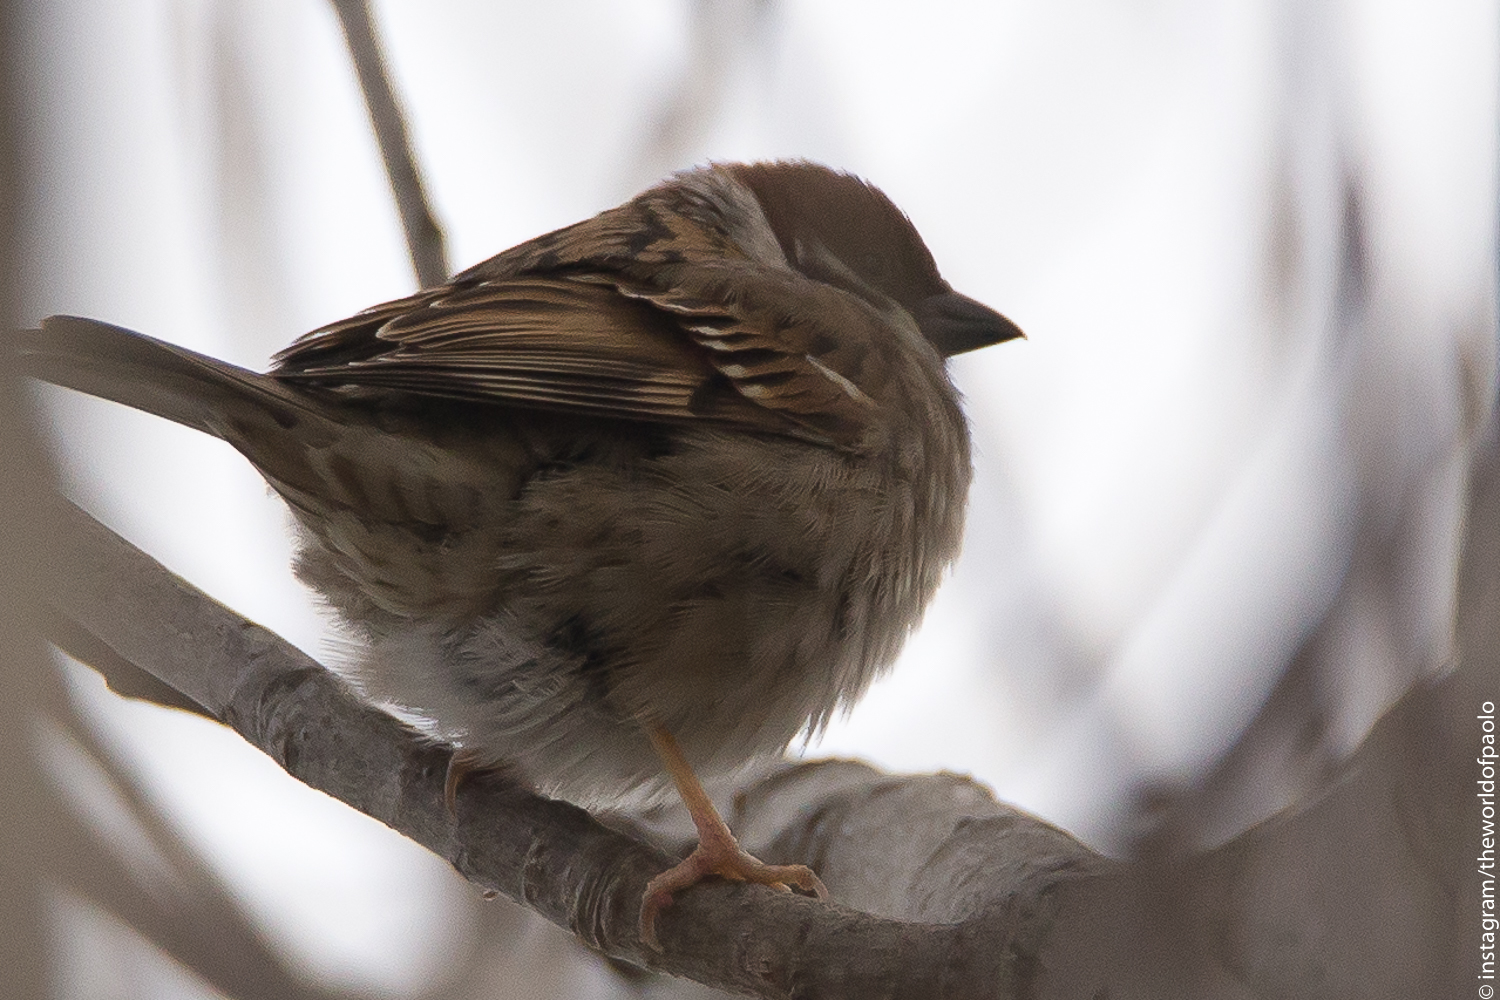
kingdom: Animalia
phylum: Chordata
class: Aves
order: Passeriformes
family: Passeridae
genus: Passer
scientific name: Passer montanus
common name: Eurasian tree sparrow
